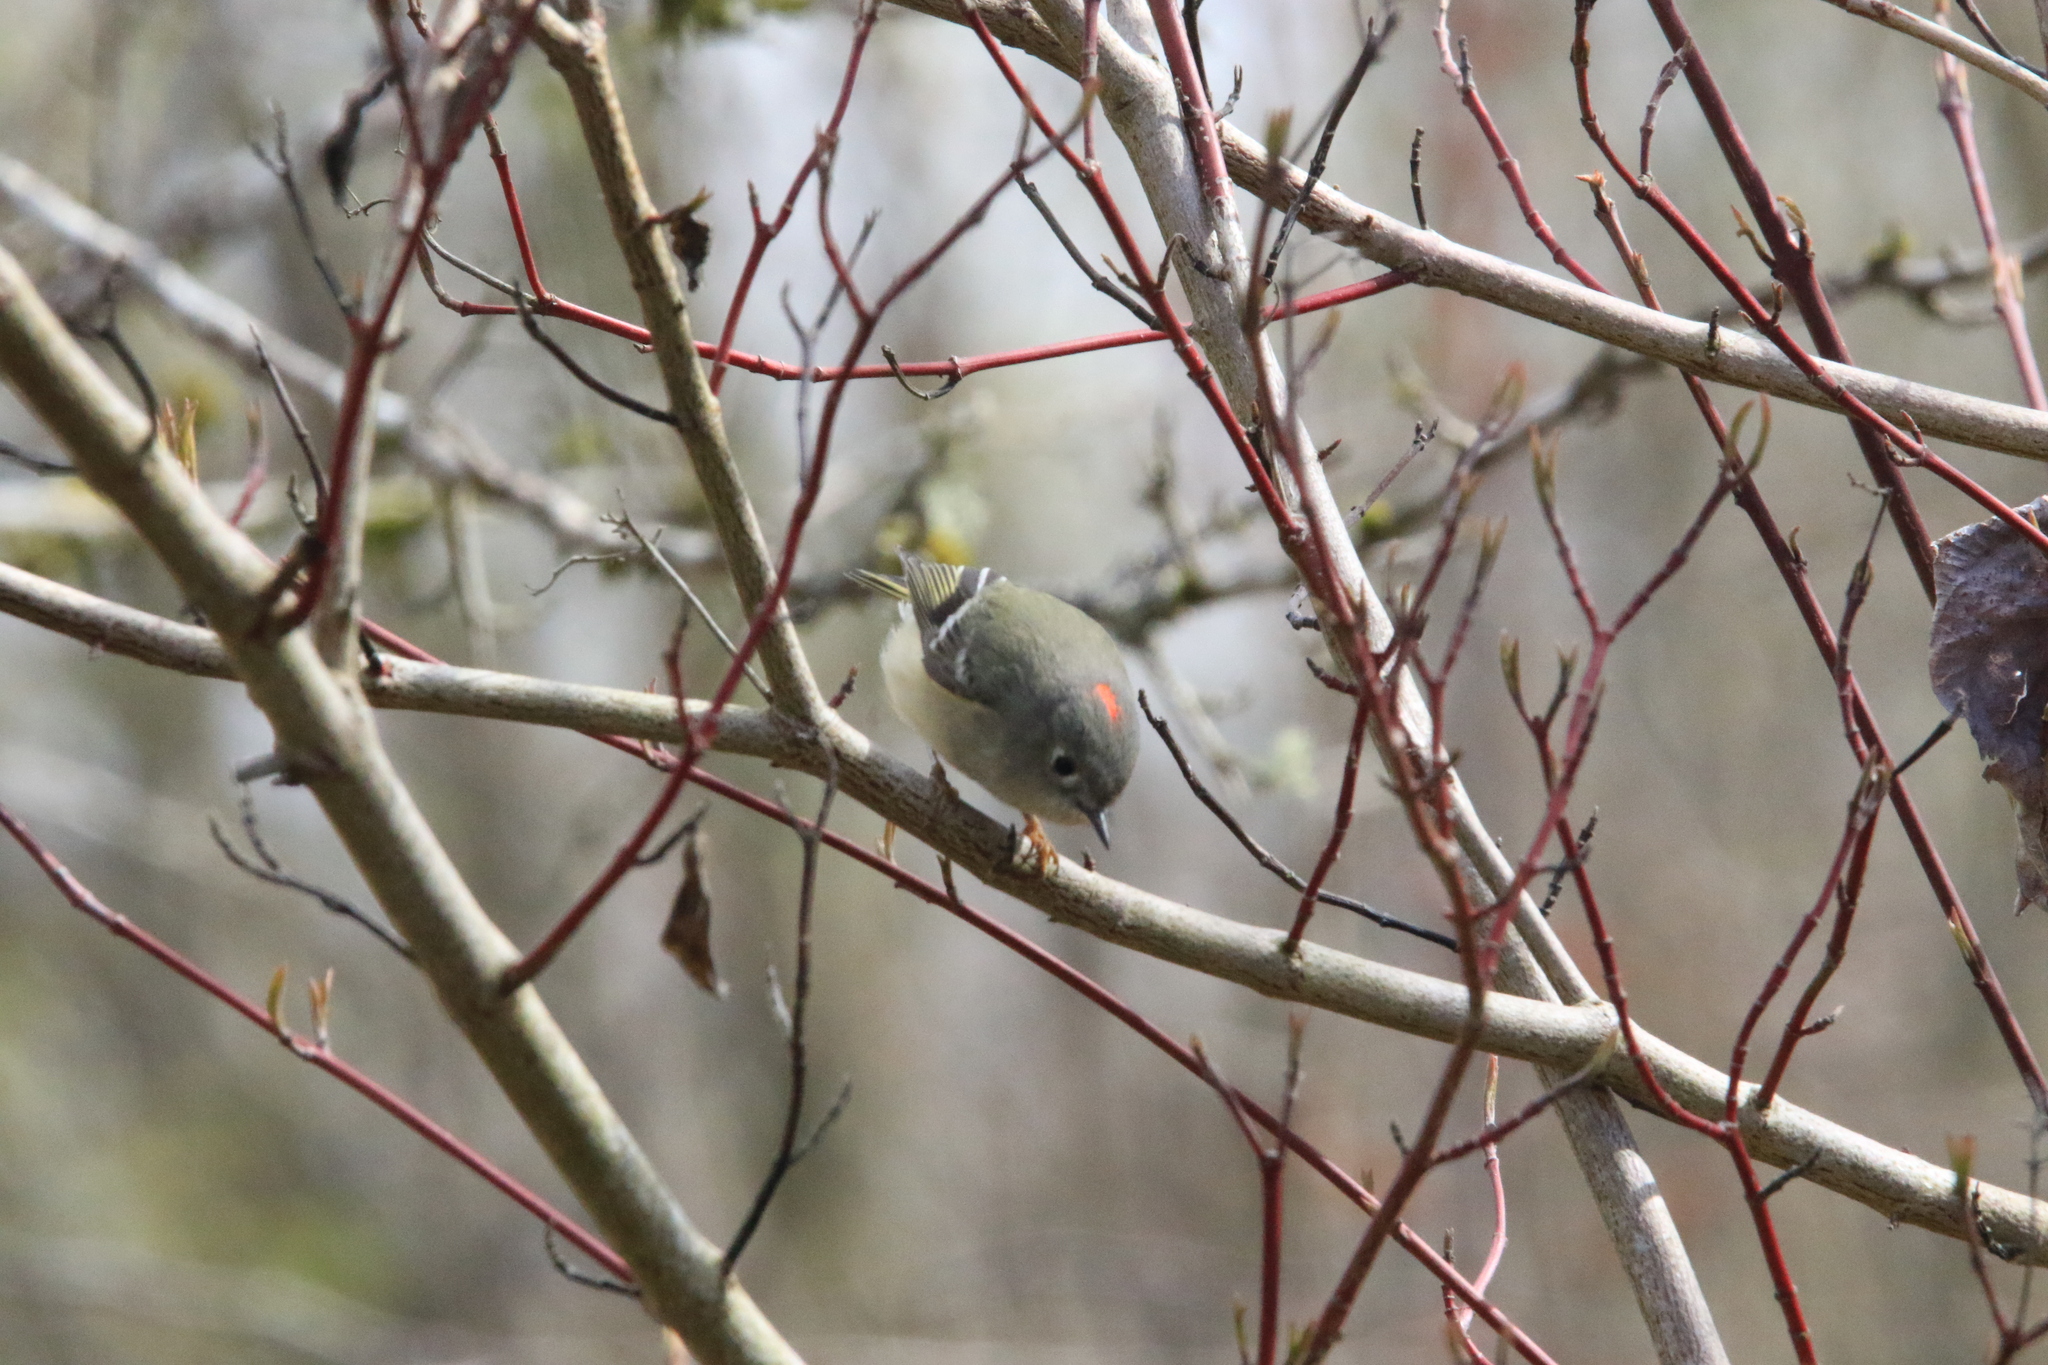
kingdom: Animalia
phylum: Chordata
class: Aves
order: Passeriformes
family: Regulidae
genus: Regulus
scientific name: Regulus calendula
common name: Ruby-crowned kinglet
